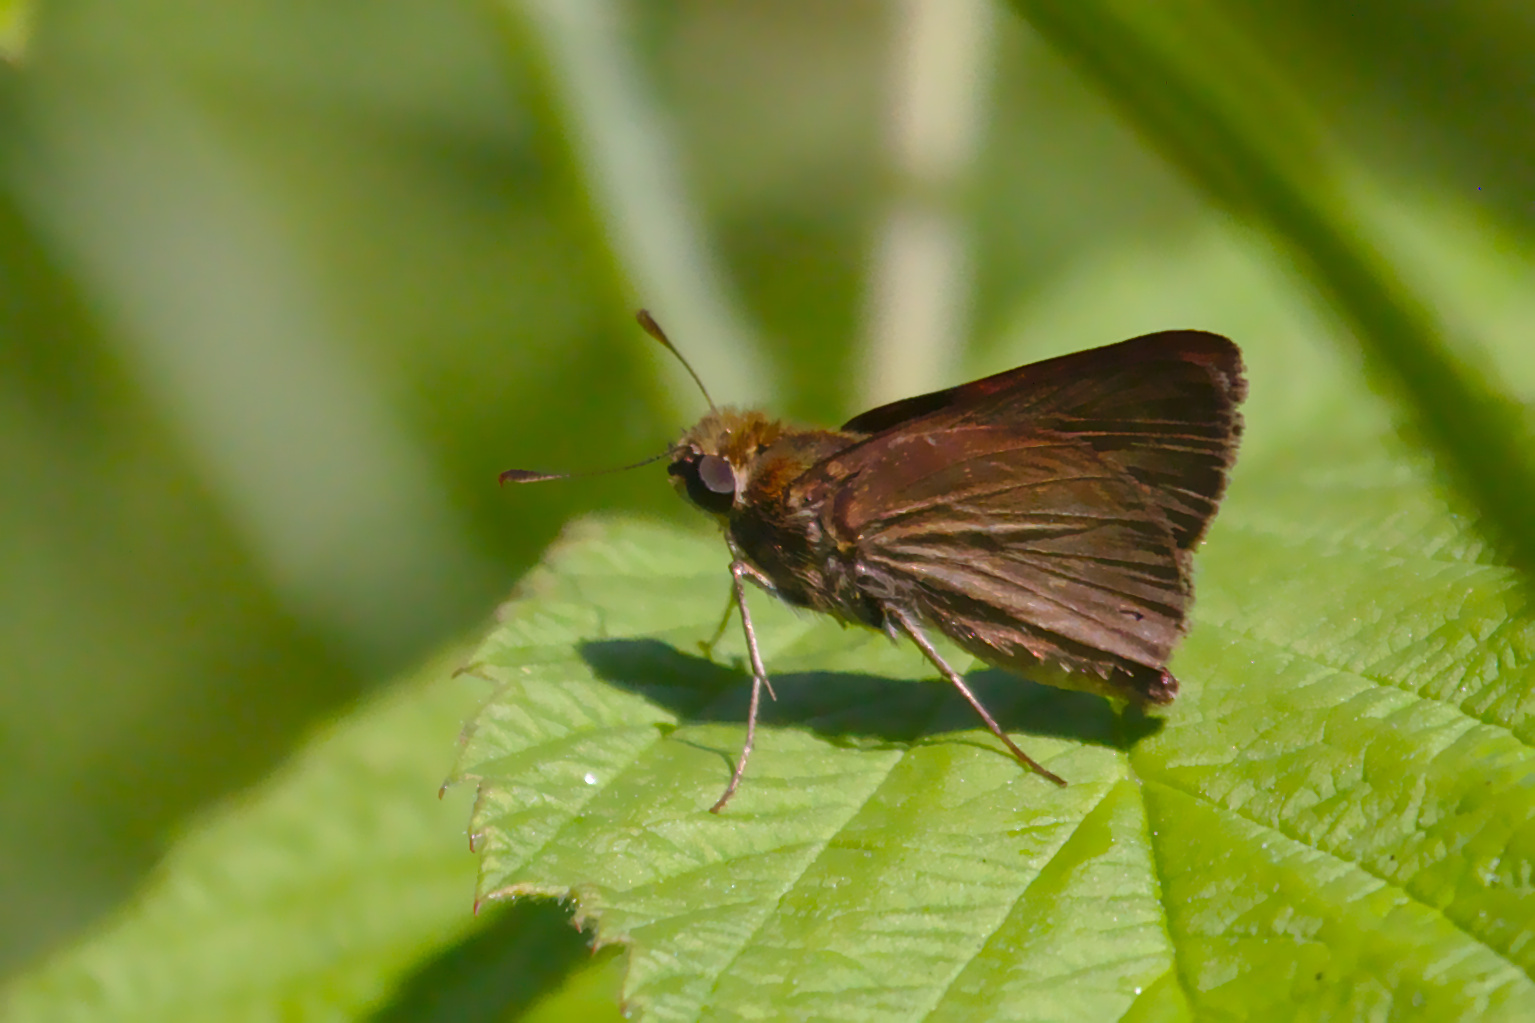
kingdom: Animalia
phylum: Arthropoda
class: Insecta
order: Lepidoptera
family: Hesperiidae
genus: Euphyes
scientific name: Euphyes vestris
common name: Dun skipper
